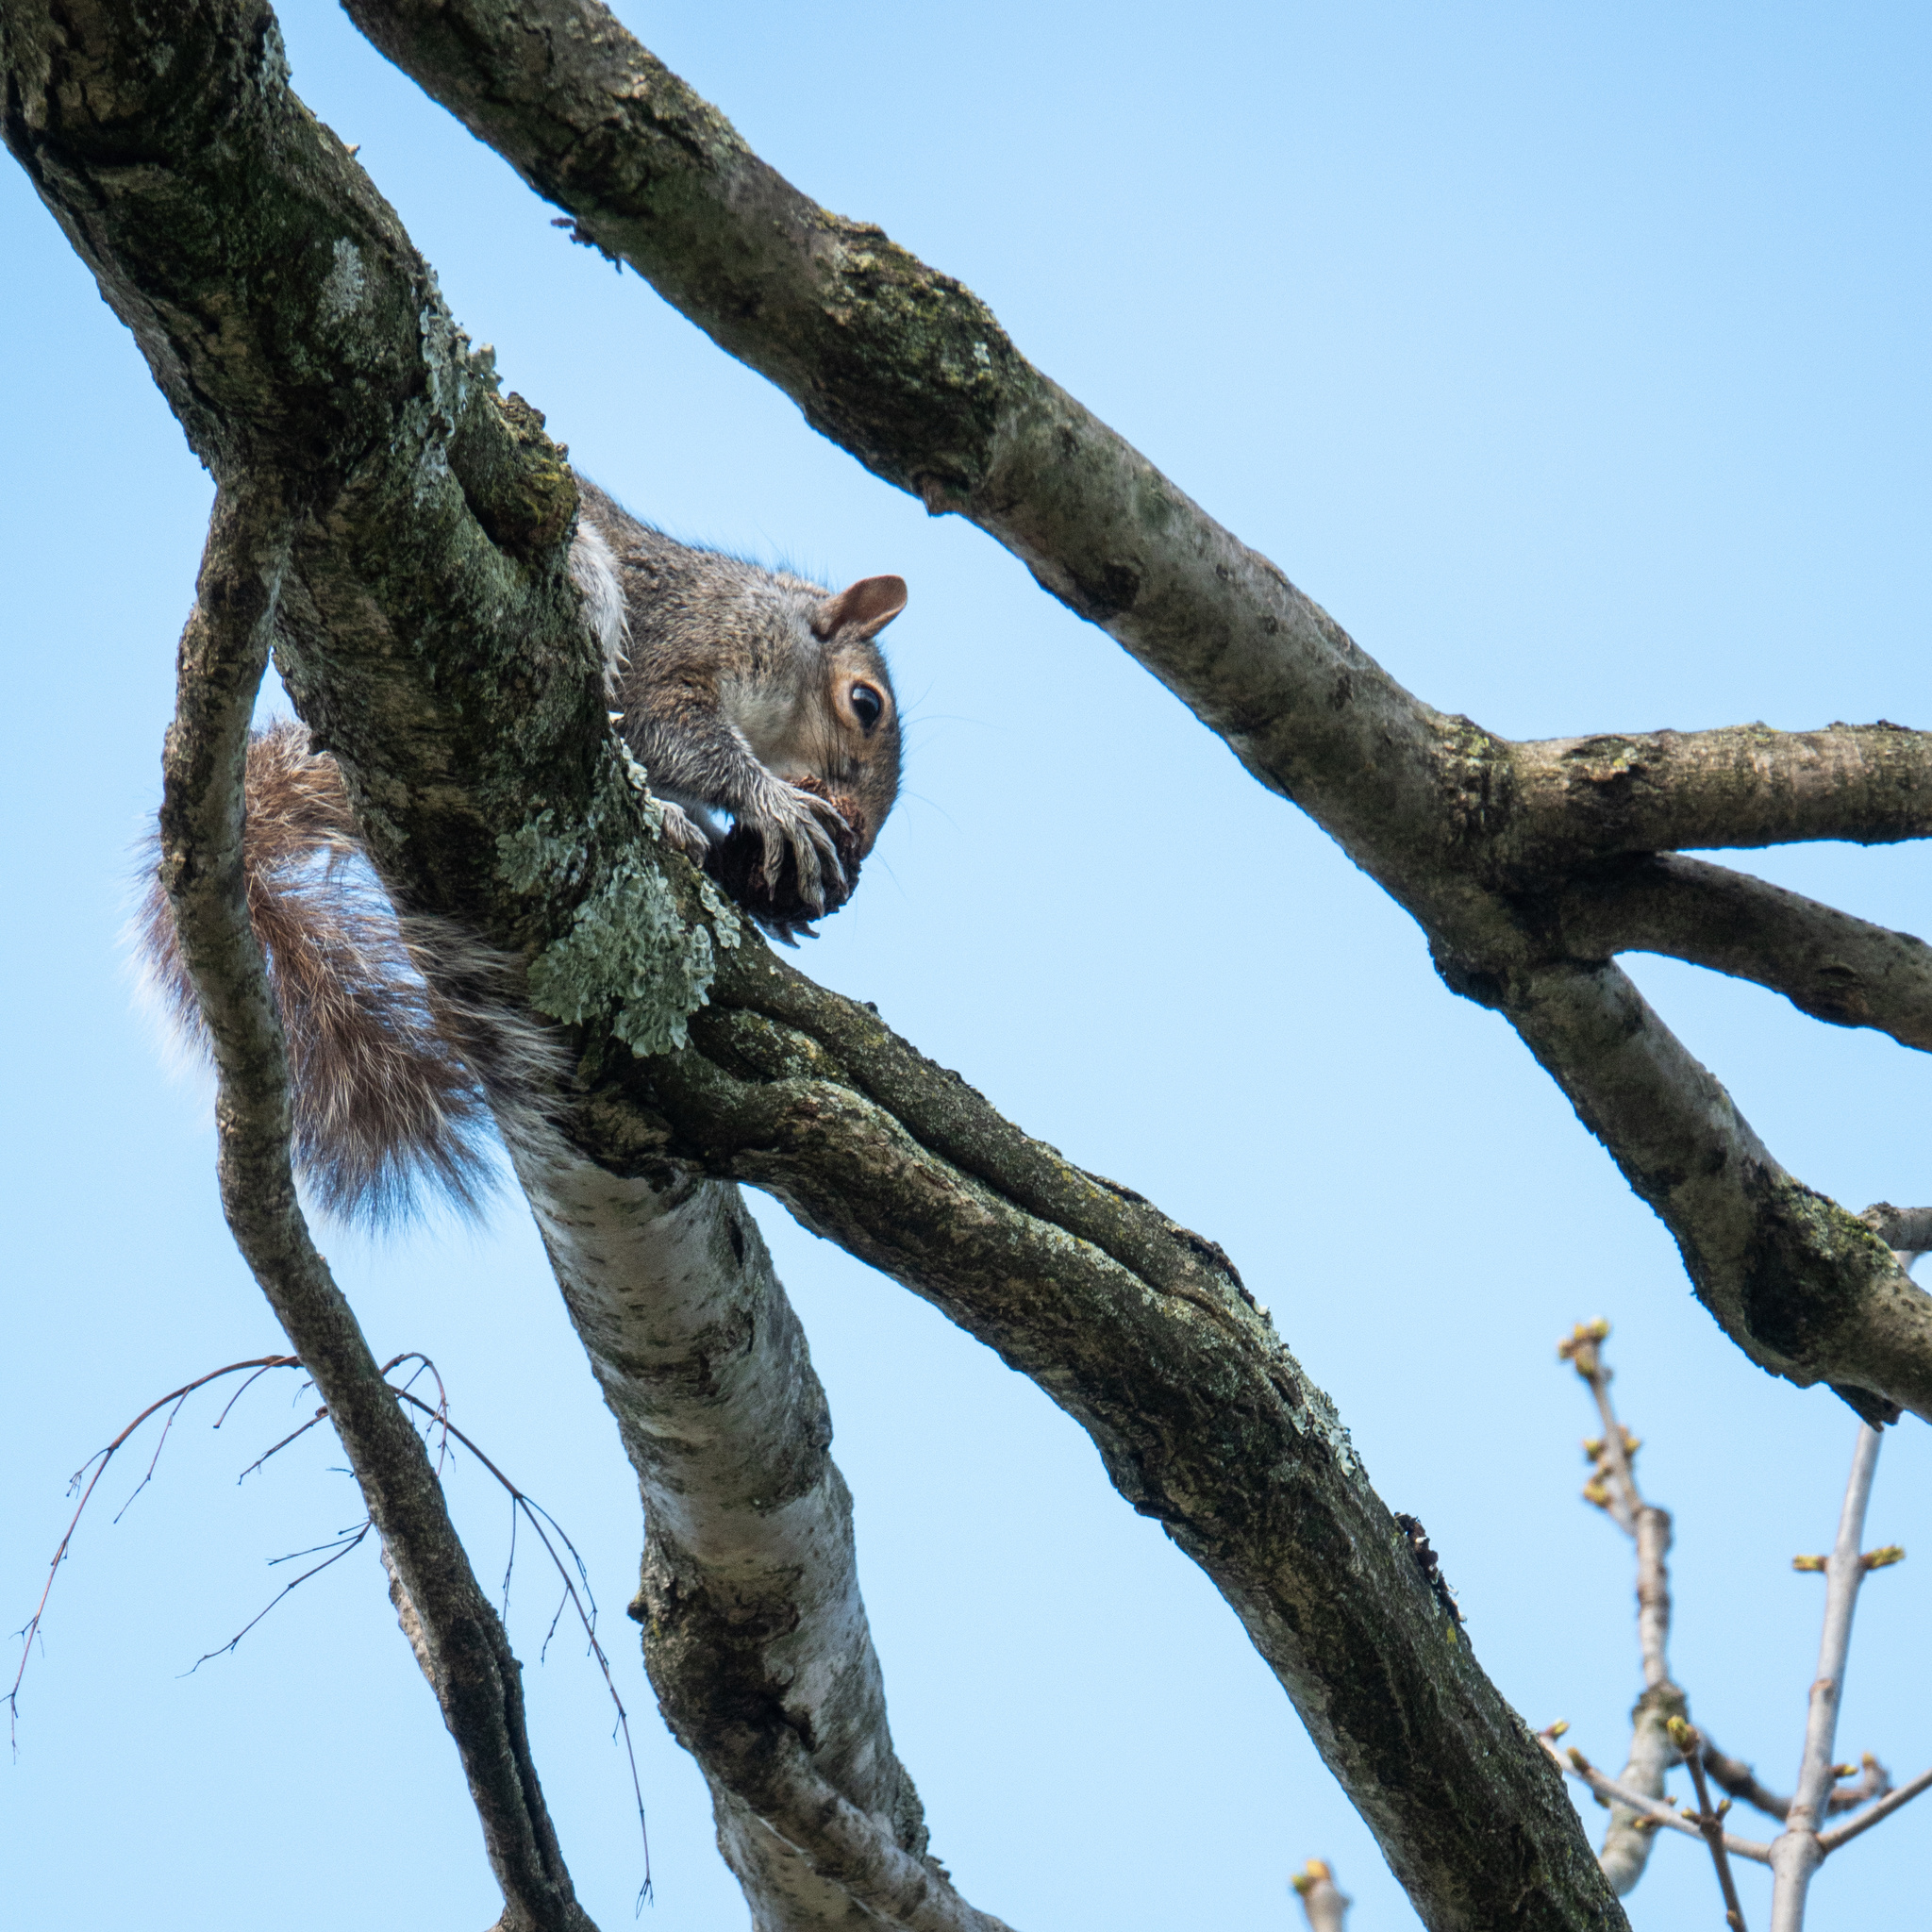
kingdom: Animalia
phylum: Chordata
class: Mammalia
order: Rodentia
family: Sciuridae
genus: Sciurus
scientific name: Sciurus carolinensis
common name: Eastern gray squirrel
